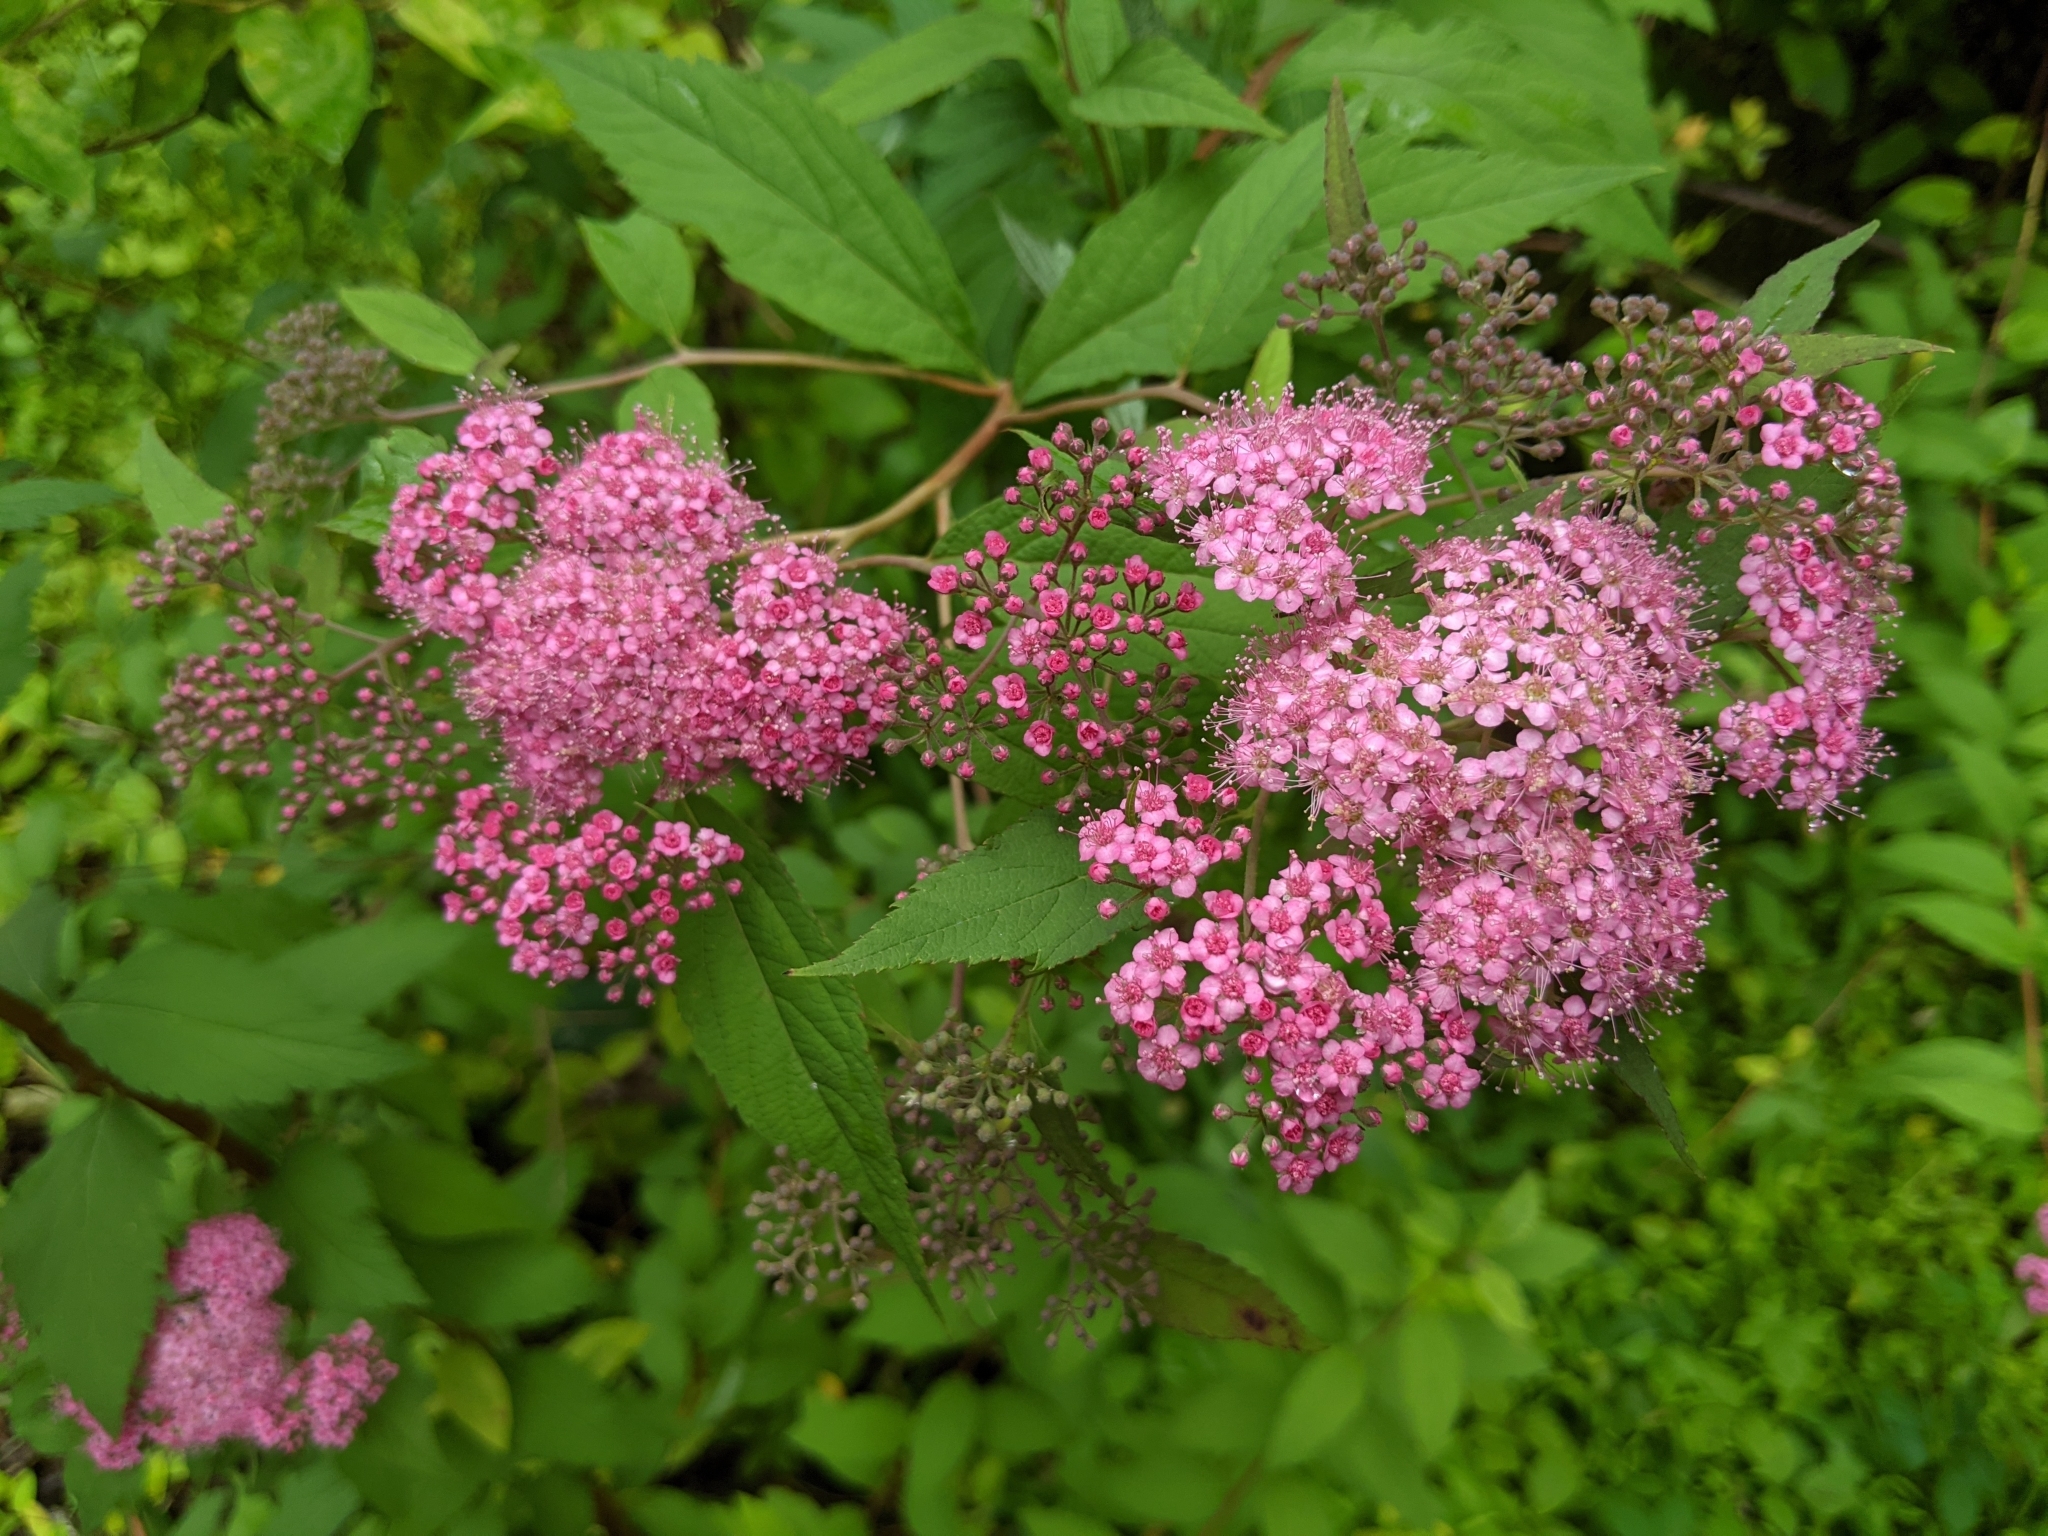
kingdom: Plantae
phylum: Tracheophyta
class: Magnoliopsida
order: Rosales
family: Rosaceae
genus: Spiraea
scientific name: Spiraea japonica
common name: Japanese spiraea
